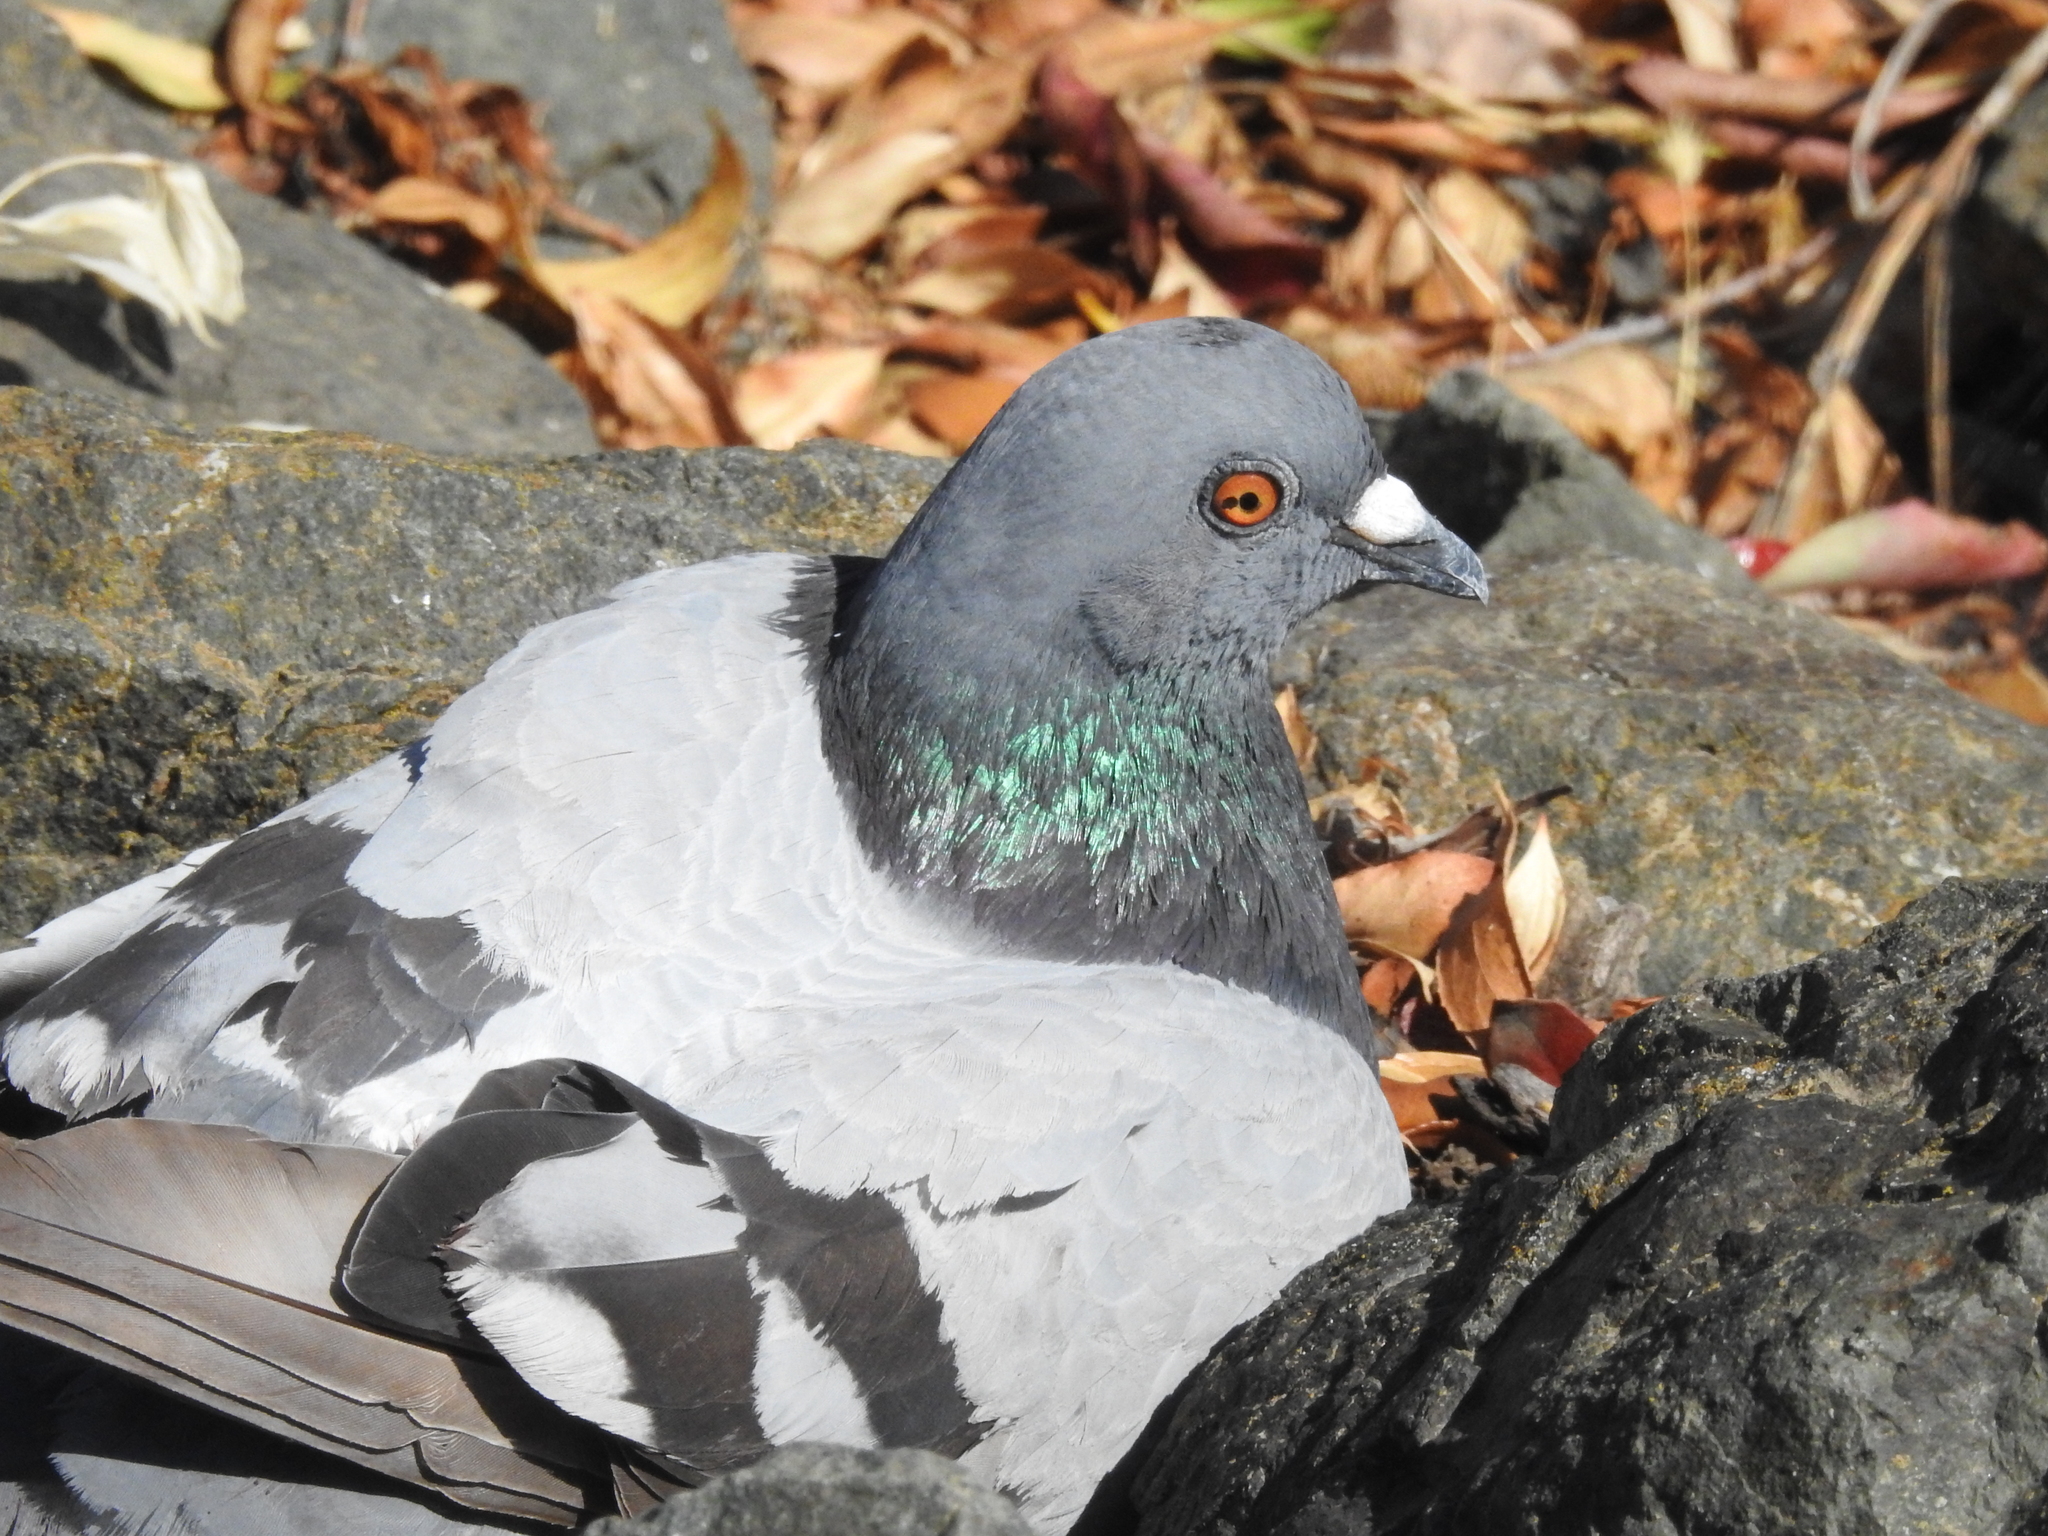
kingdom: Animalia
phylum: Chordata
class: Aves
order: Columbiformes
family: Columbidae
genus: Columba
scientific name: Columba livia
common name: Rock pigeon
